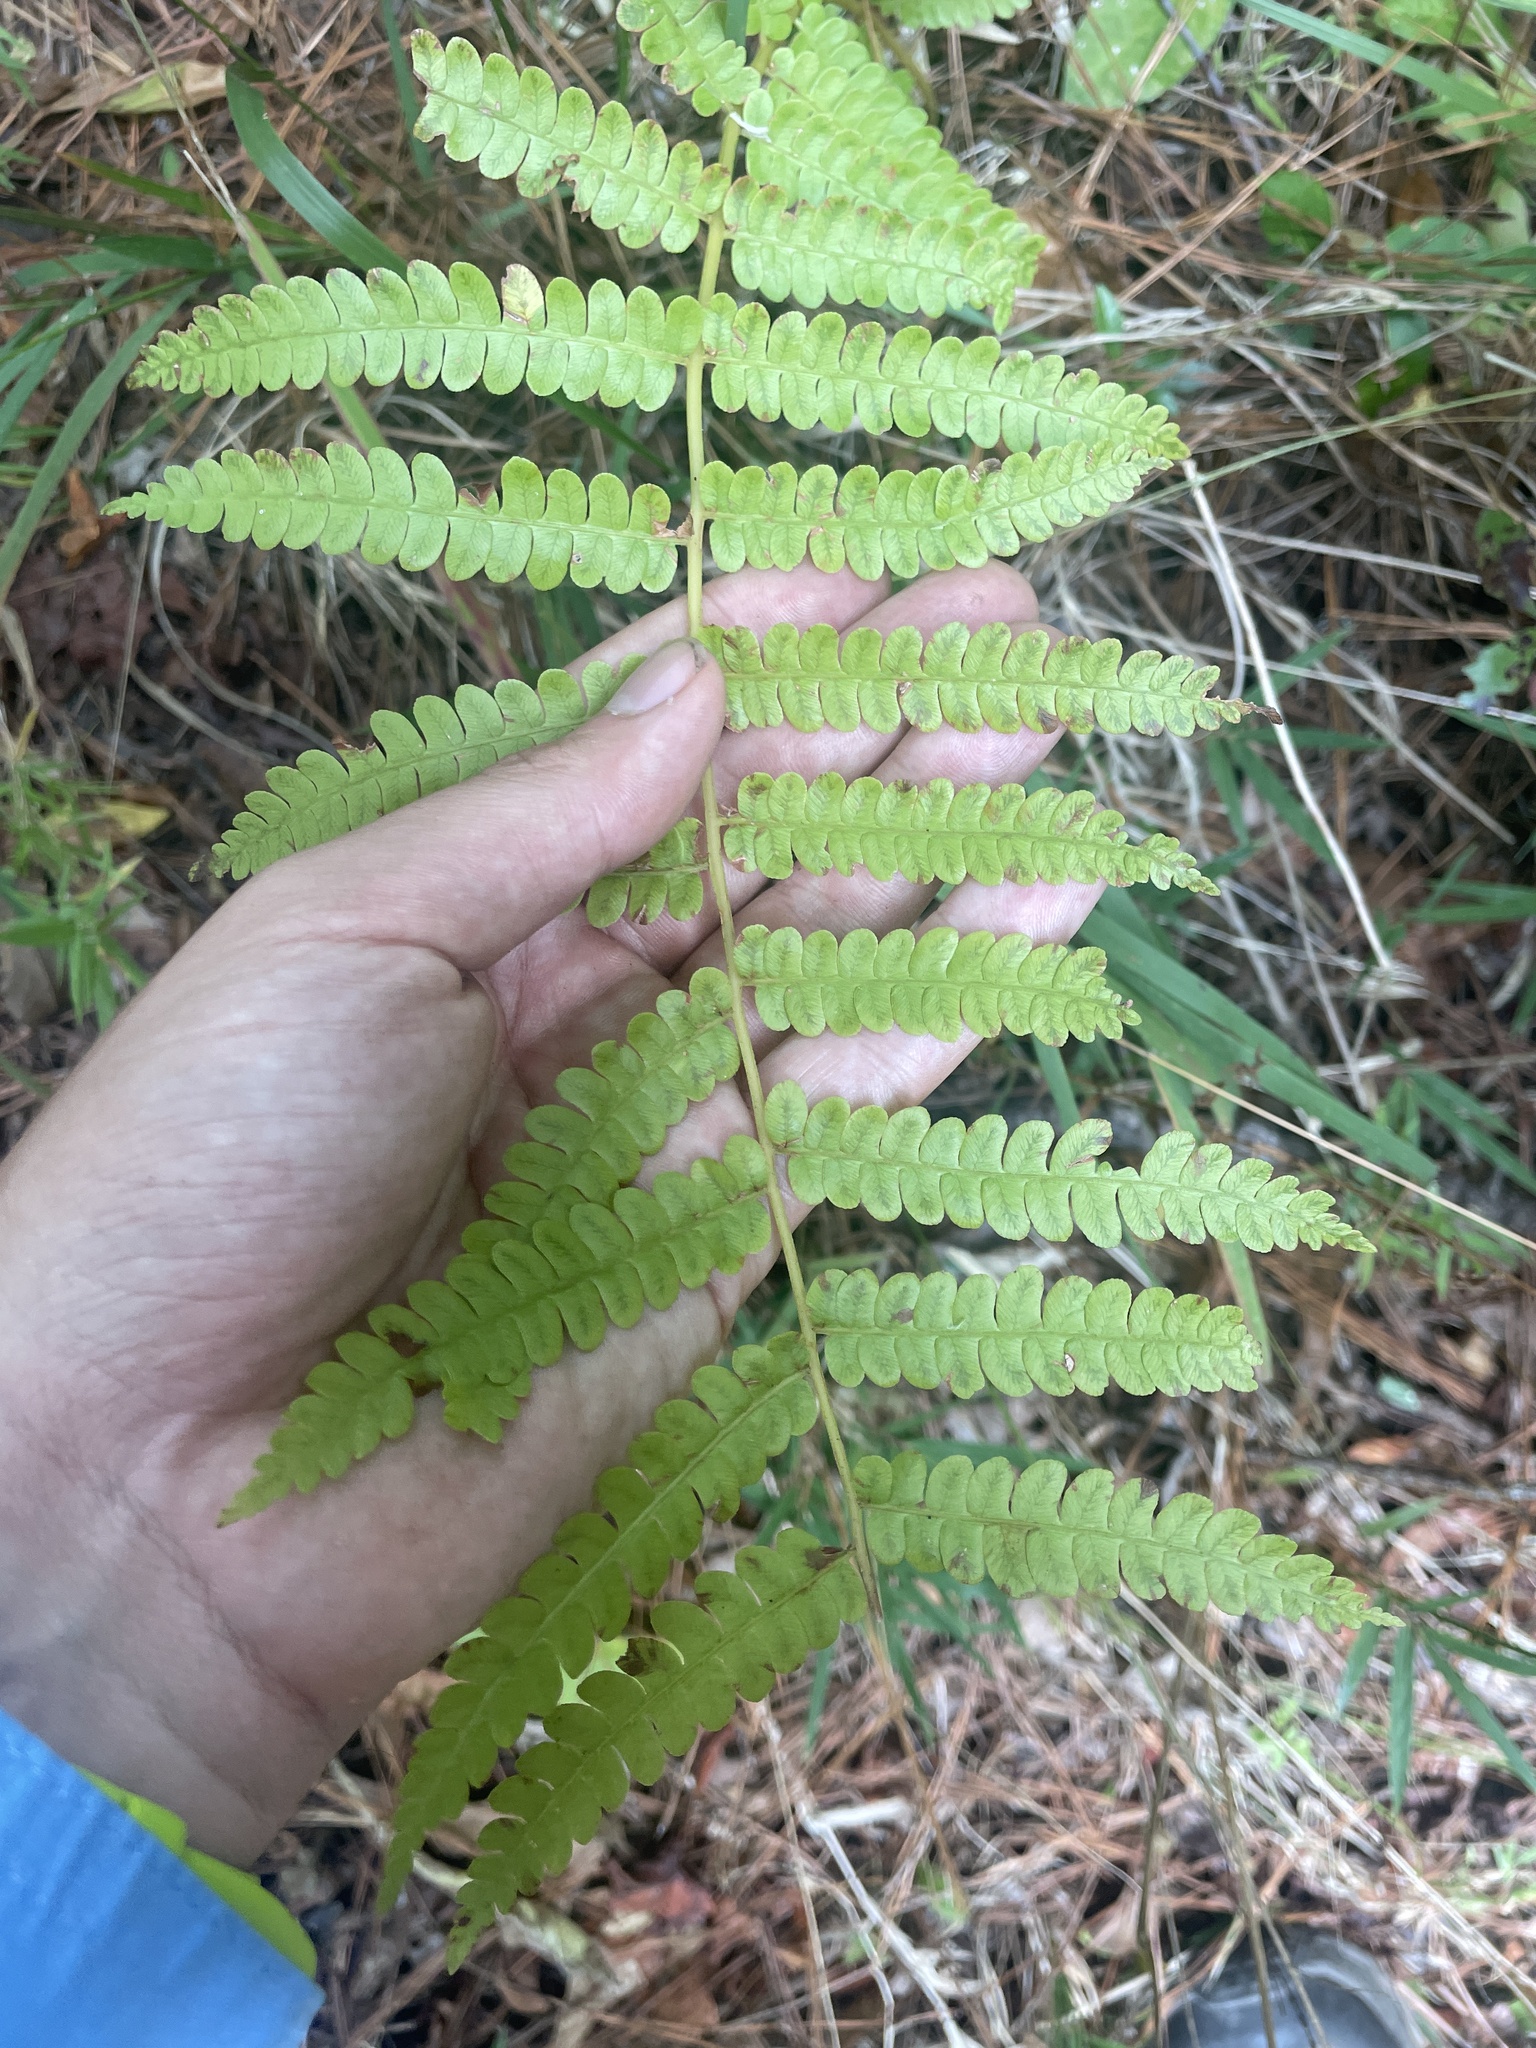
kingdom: Plantae
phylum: Tracheophyta
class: Polypodiopsida
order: Osmundales
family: Osmundaceae
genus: Osmundastrum
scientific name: Osmundastrum cinnamomeum
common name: Cinnamon fern
